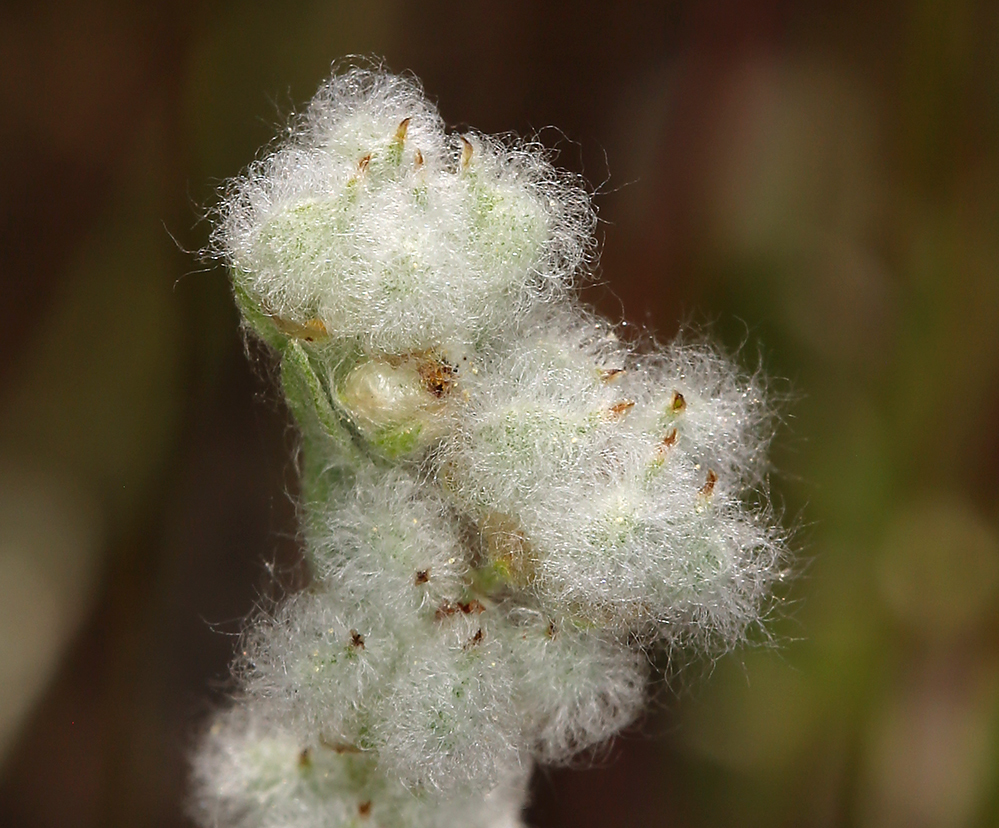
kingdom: Plantae
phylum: Tracheophyta
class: Magnoliopsida
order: Asterales
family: Asteraceae
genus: Bombycilaena
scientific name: Bombycilaena californica
